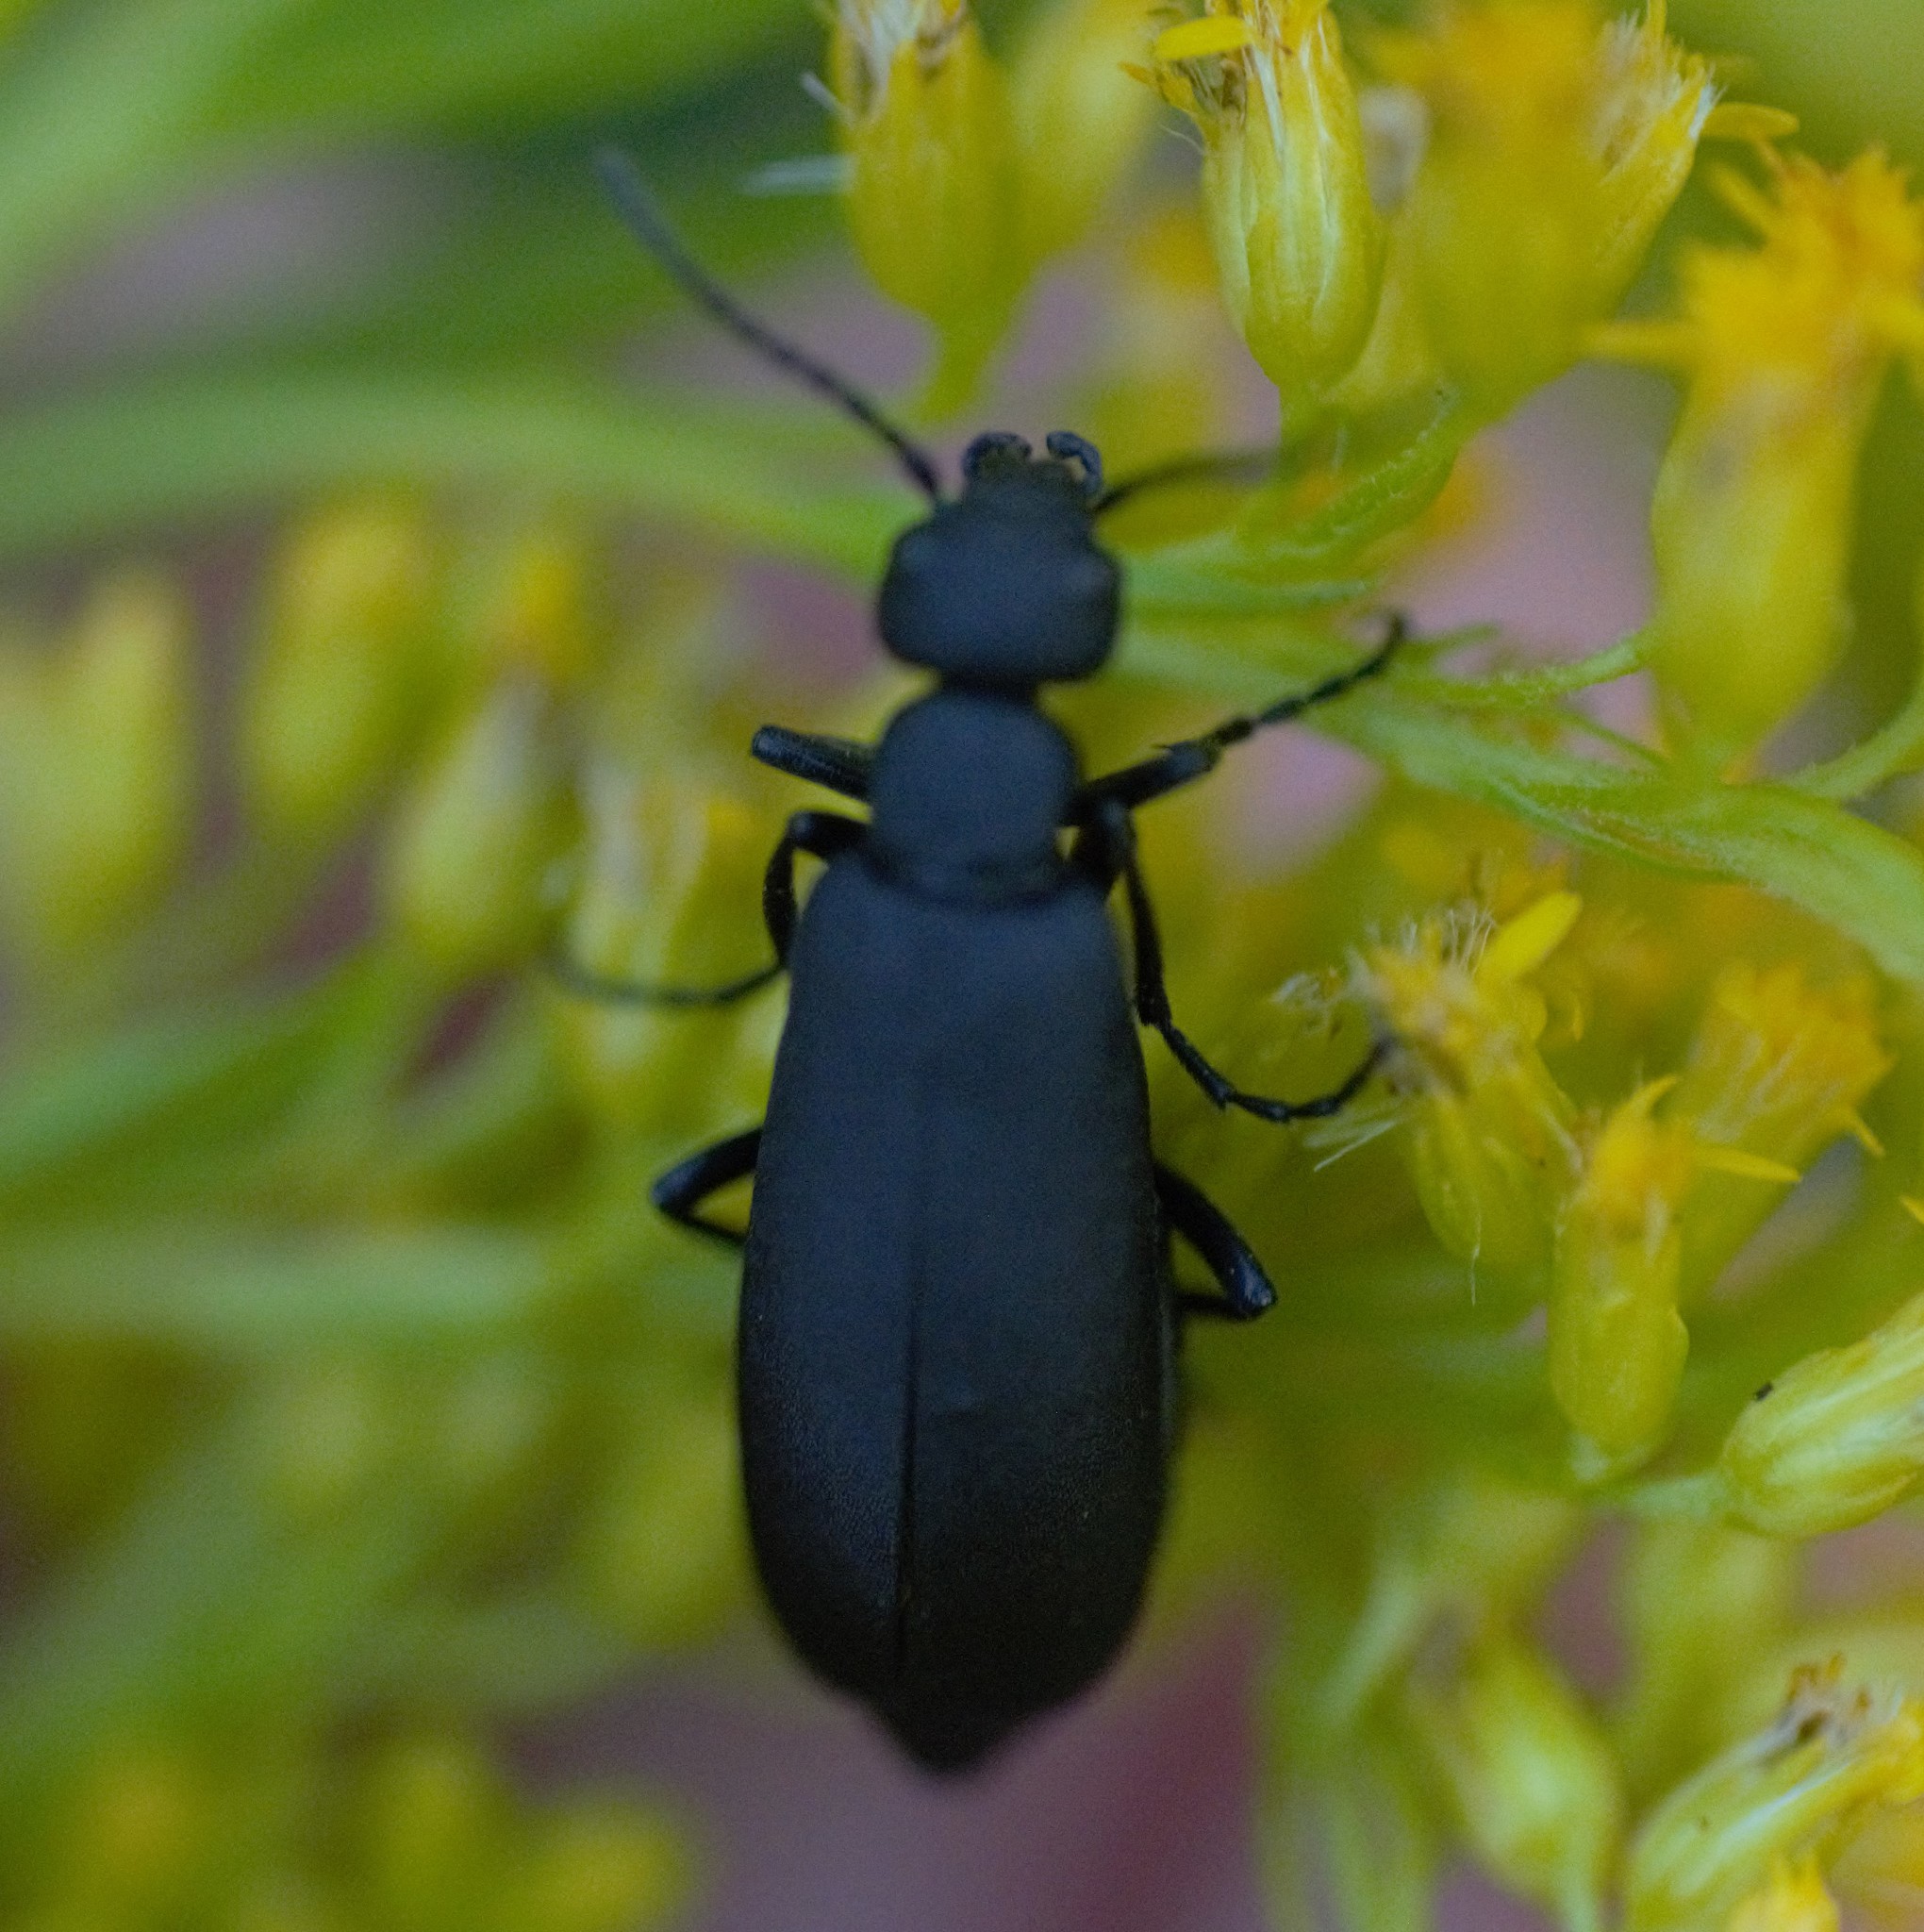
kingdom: Animalia
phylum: Arthropoda
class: Insecta
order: Coleoptera
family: Meloidae
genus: Epicauta
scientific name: Epicauta pensylvanica
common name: Black blister beetle
